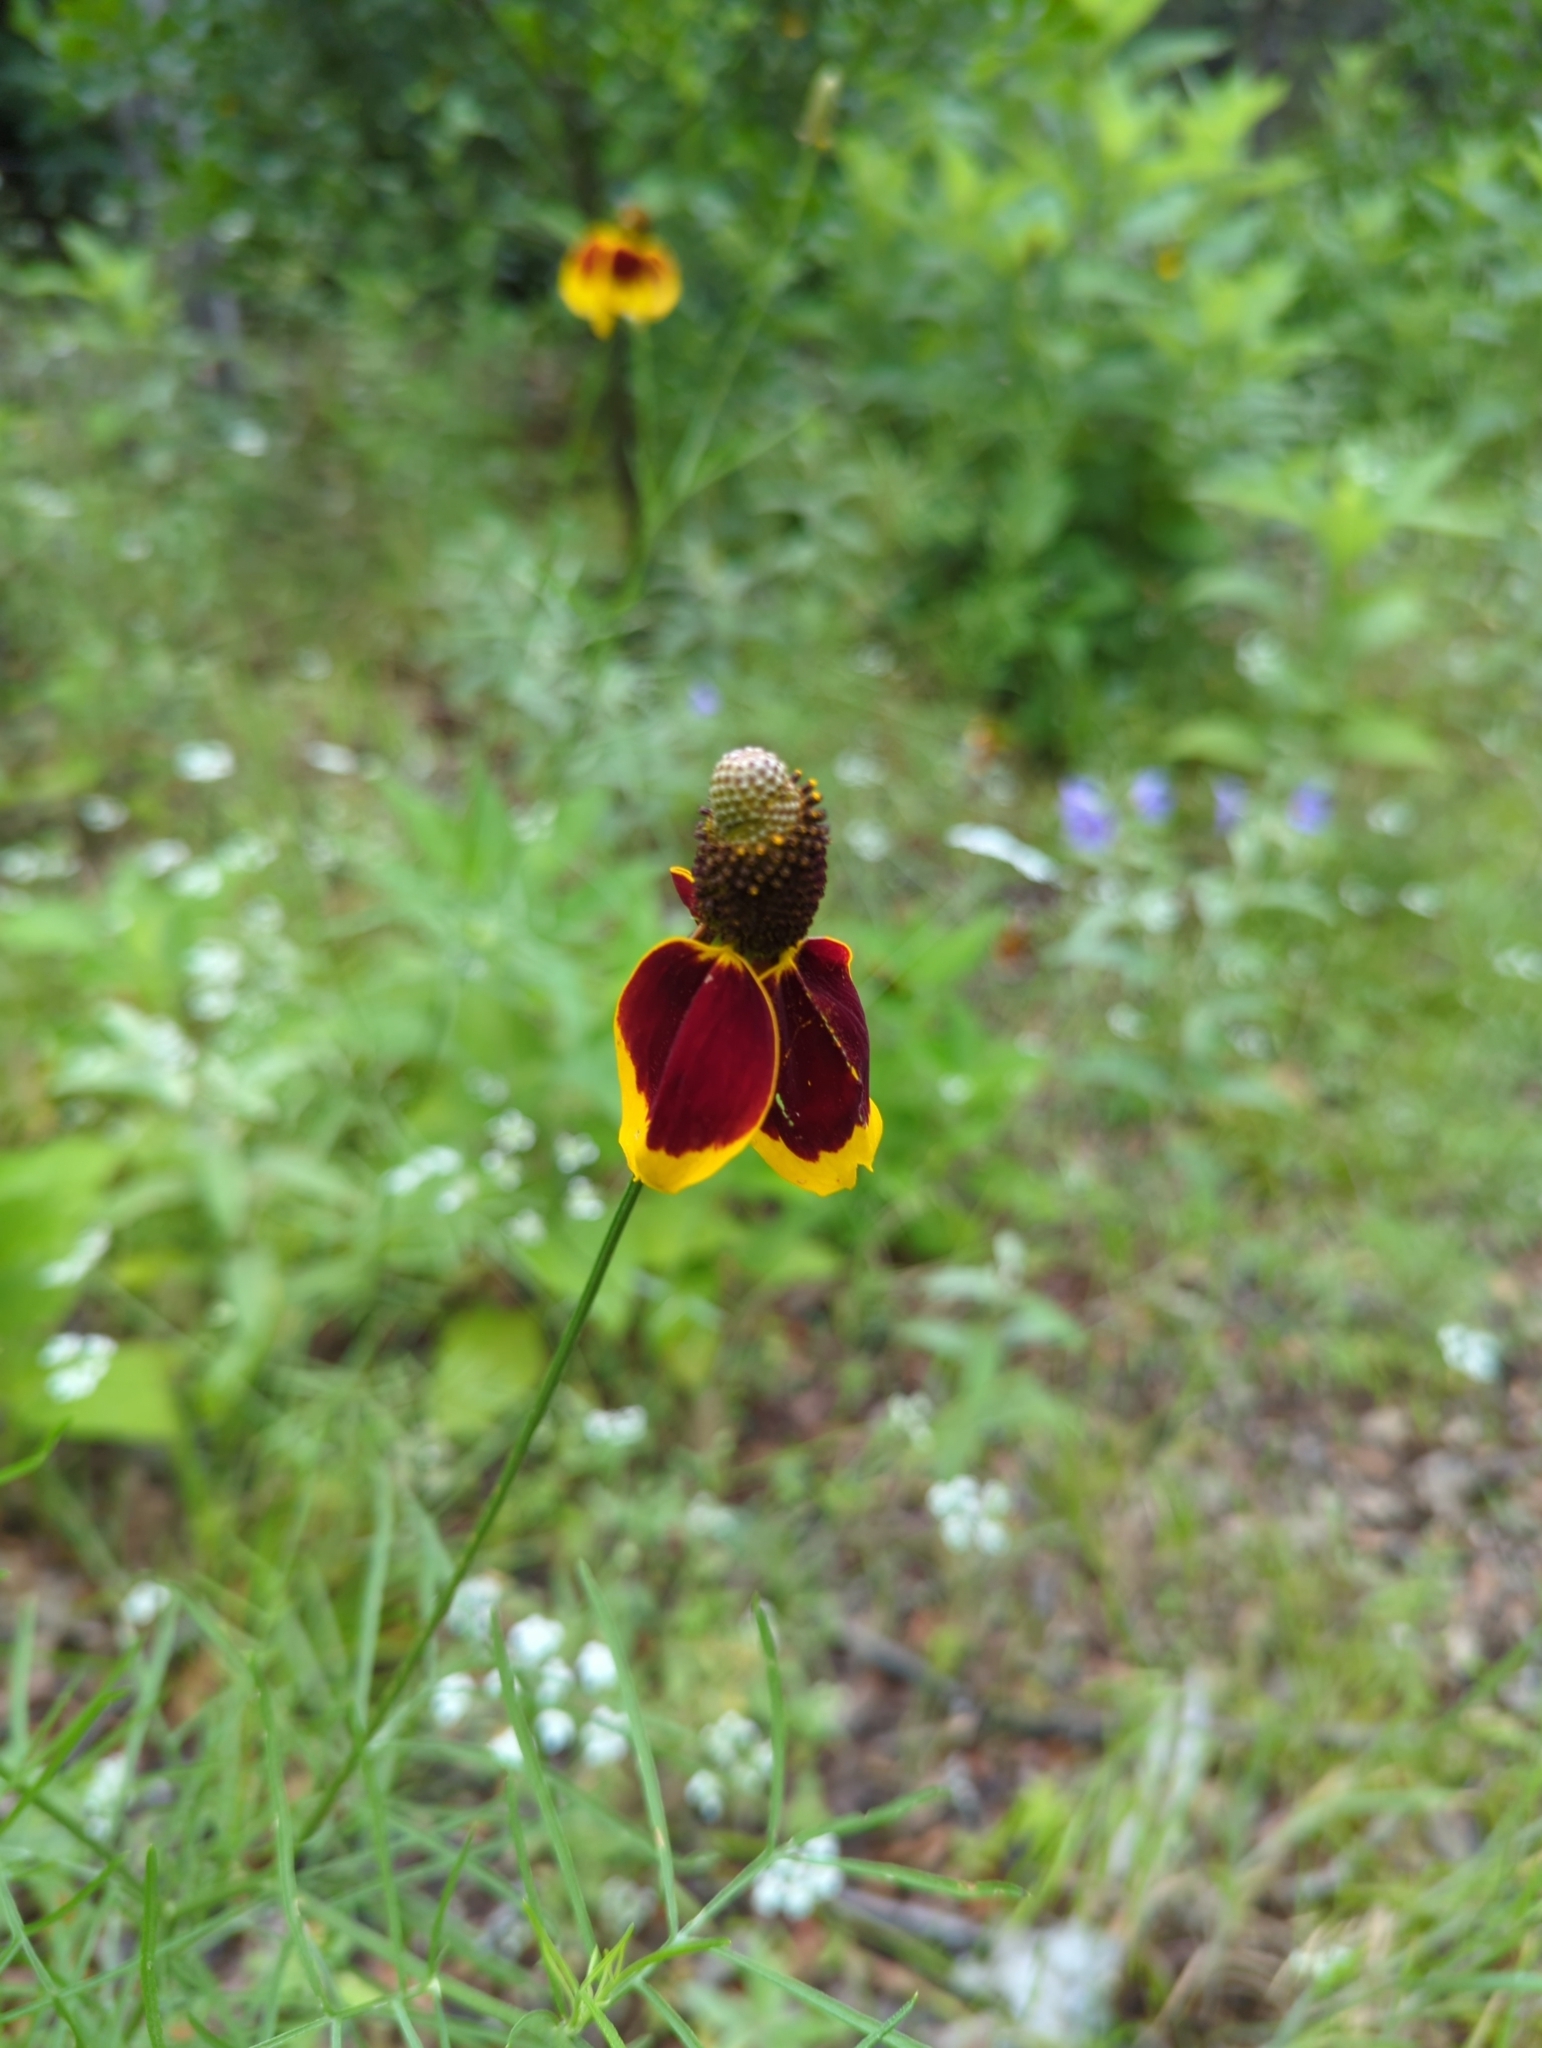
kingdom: Plantae
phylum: Tracheophyta
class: Magnoliopsida
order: Asterales
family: Asteraceae
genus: Ratibida
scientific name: Ratibida columnifera
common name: Prairie coneflower
